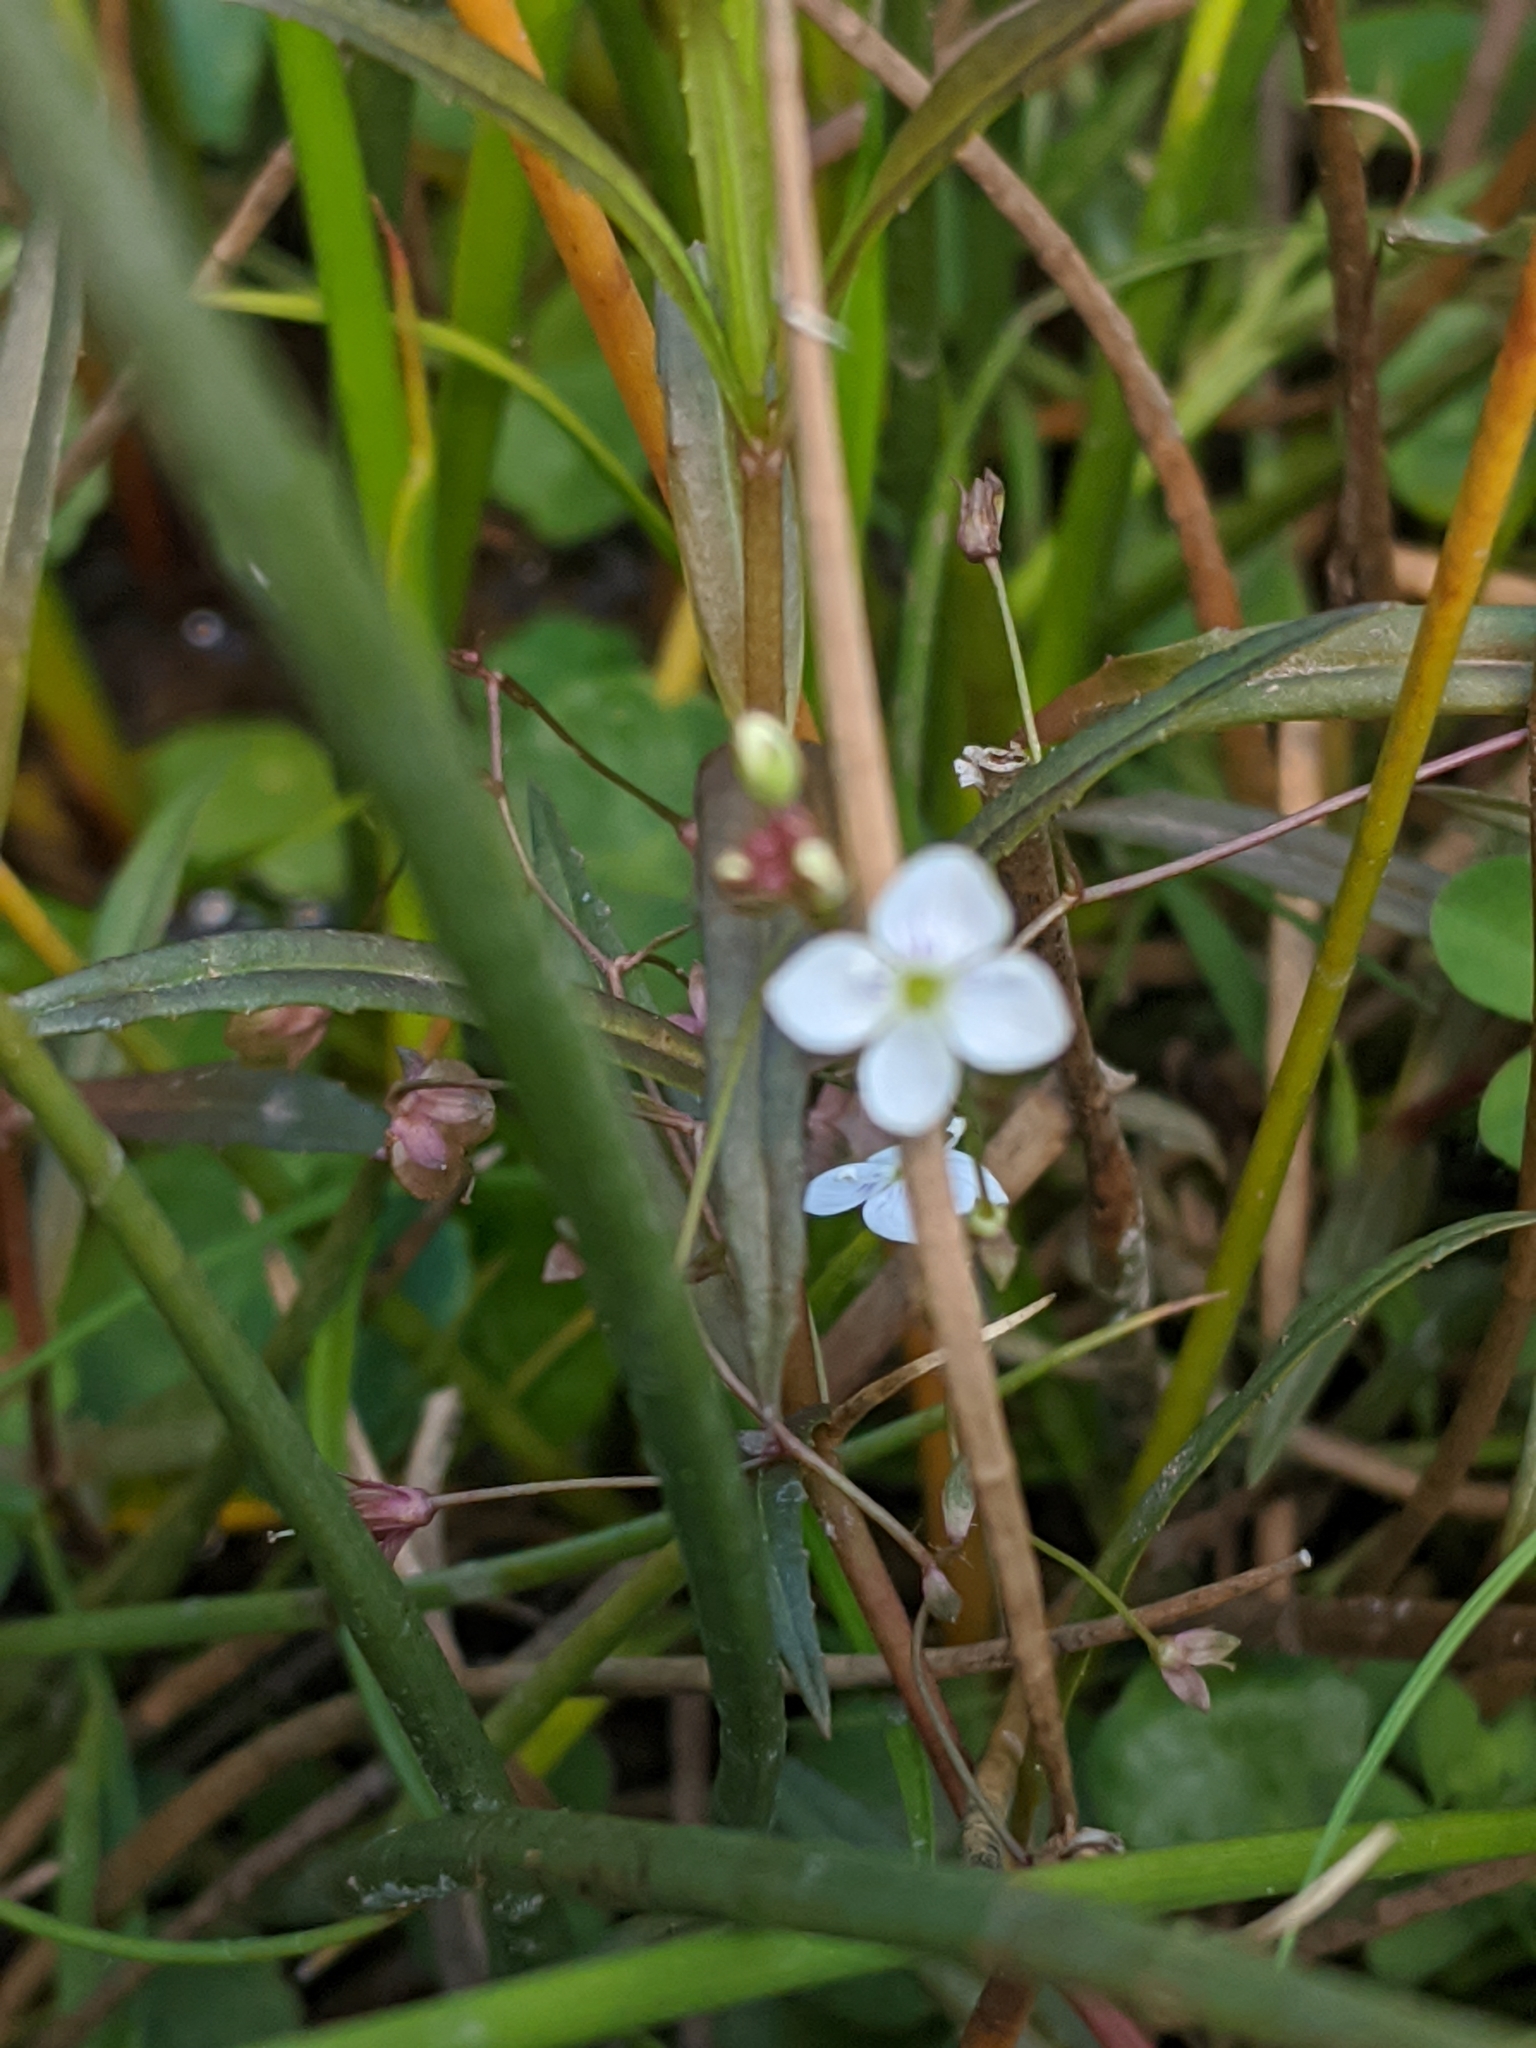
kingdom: Plantae
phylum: Tracheophyta
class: Magnoliopsida
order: Lamiales
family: Plantaginaceae
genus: Veronica
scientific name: Veronica scutellata
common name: Marsh speedwell
